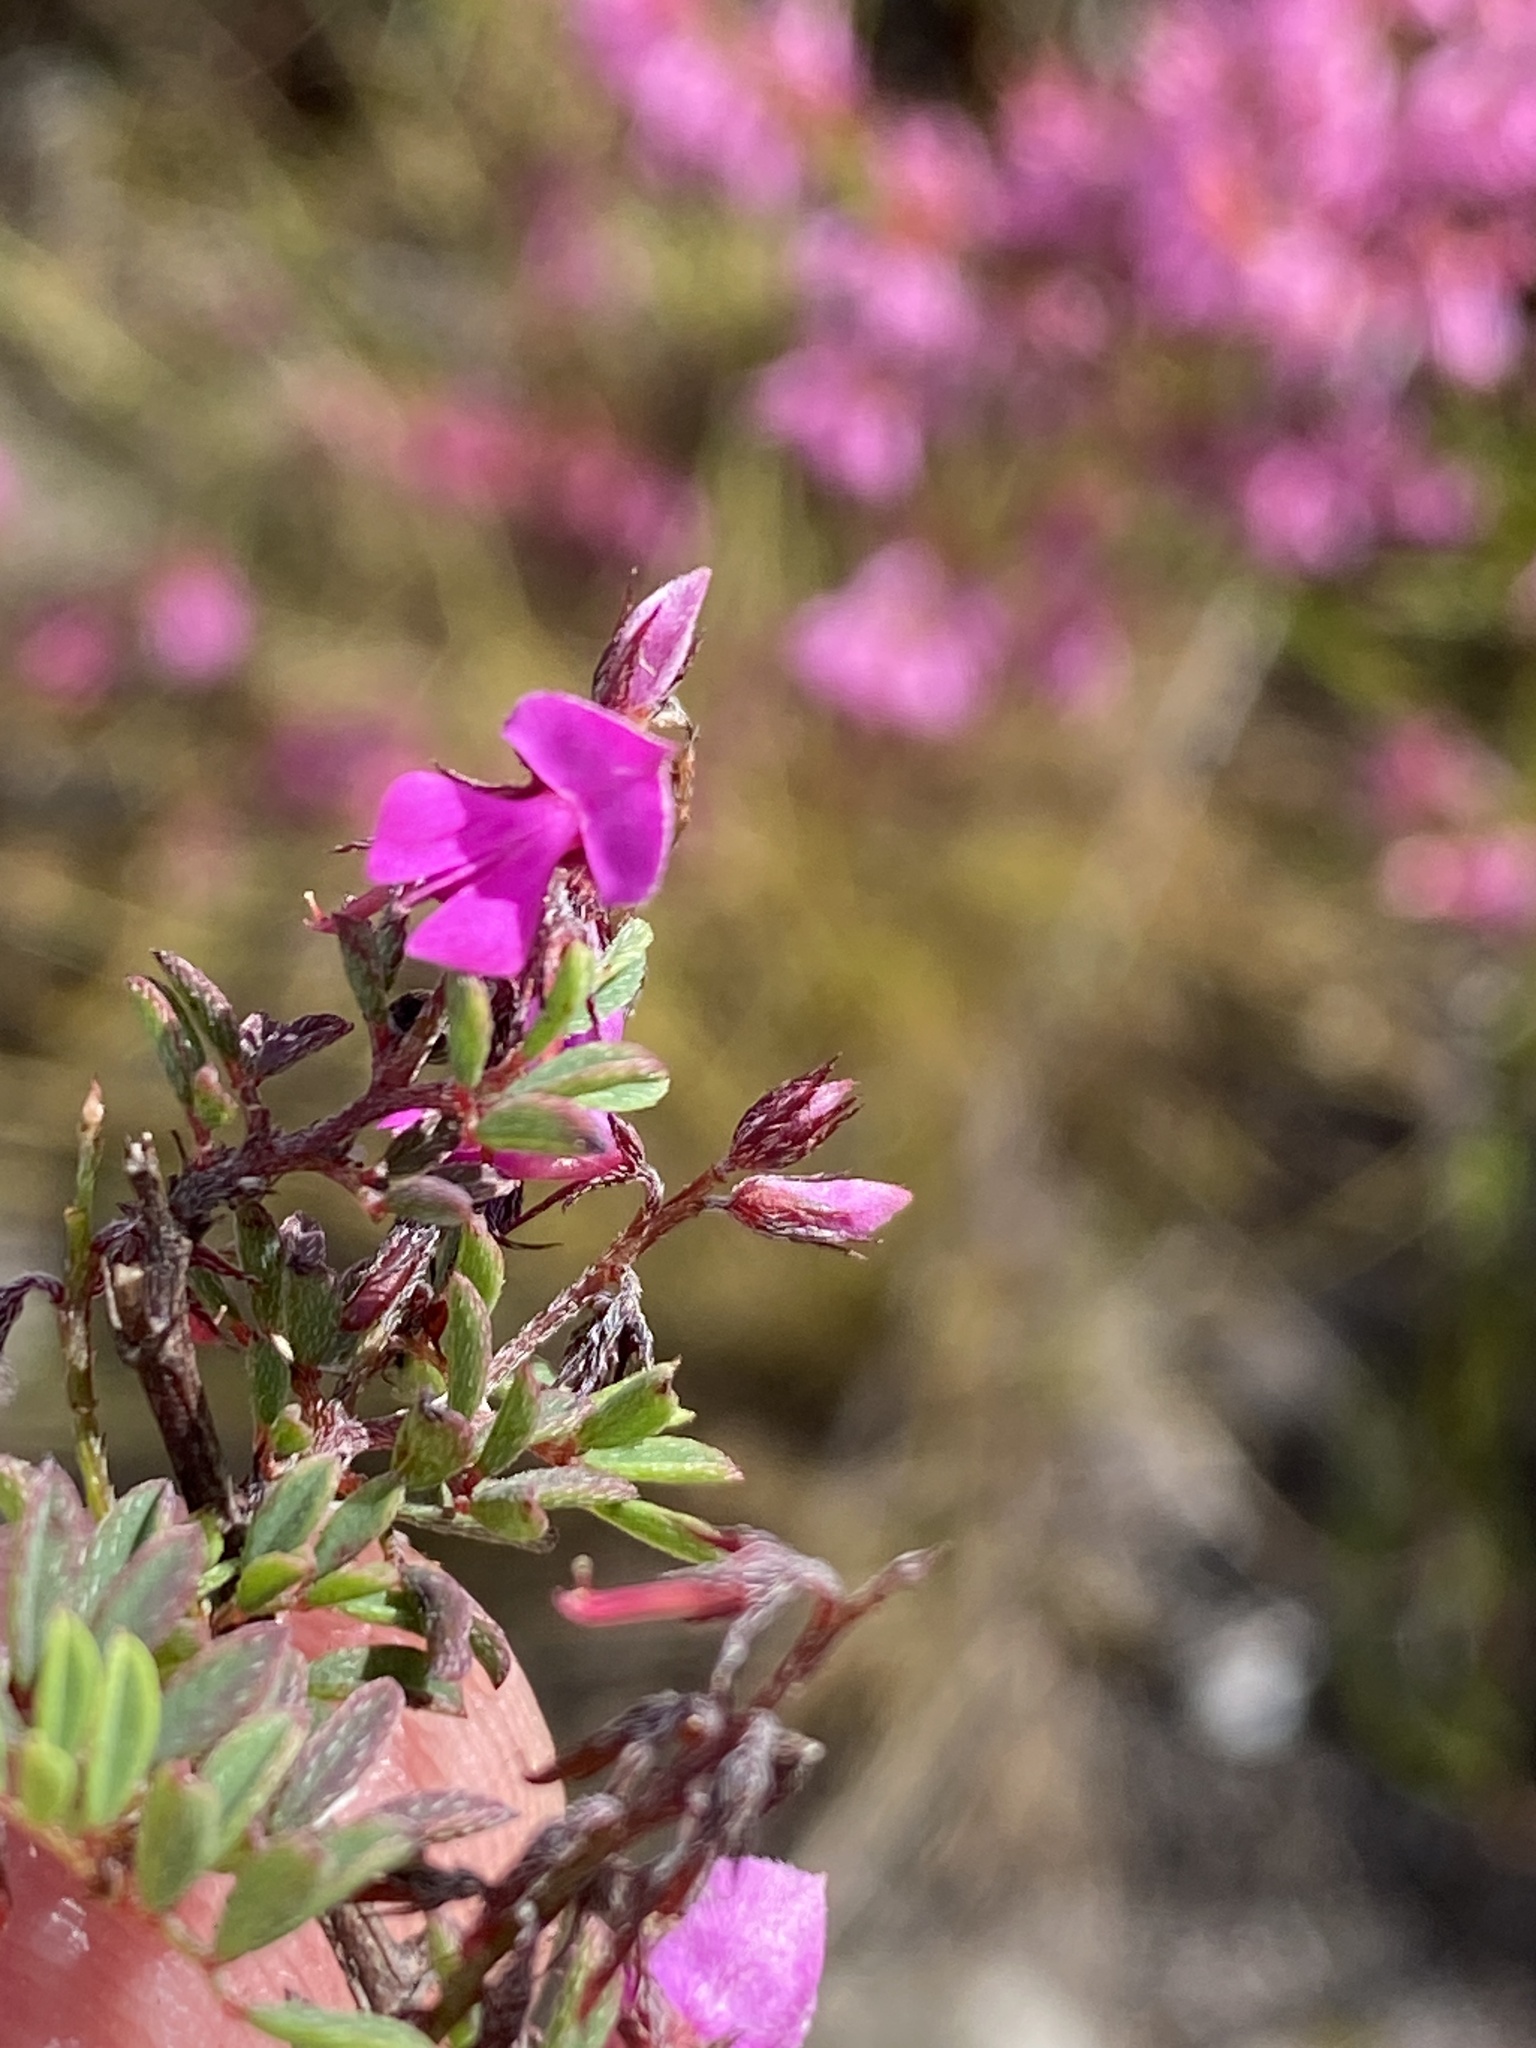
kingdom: Plantae
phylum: Tracheophyta
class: Magnoliopsida
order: Fabales
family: Fabaceae
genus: Indigofera
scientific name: Indigofera
